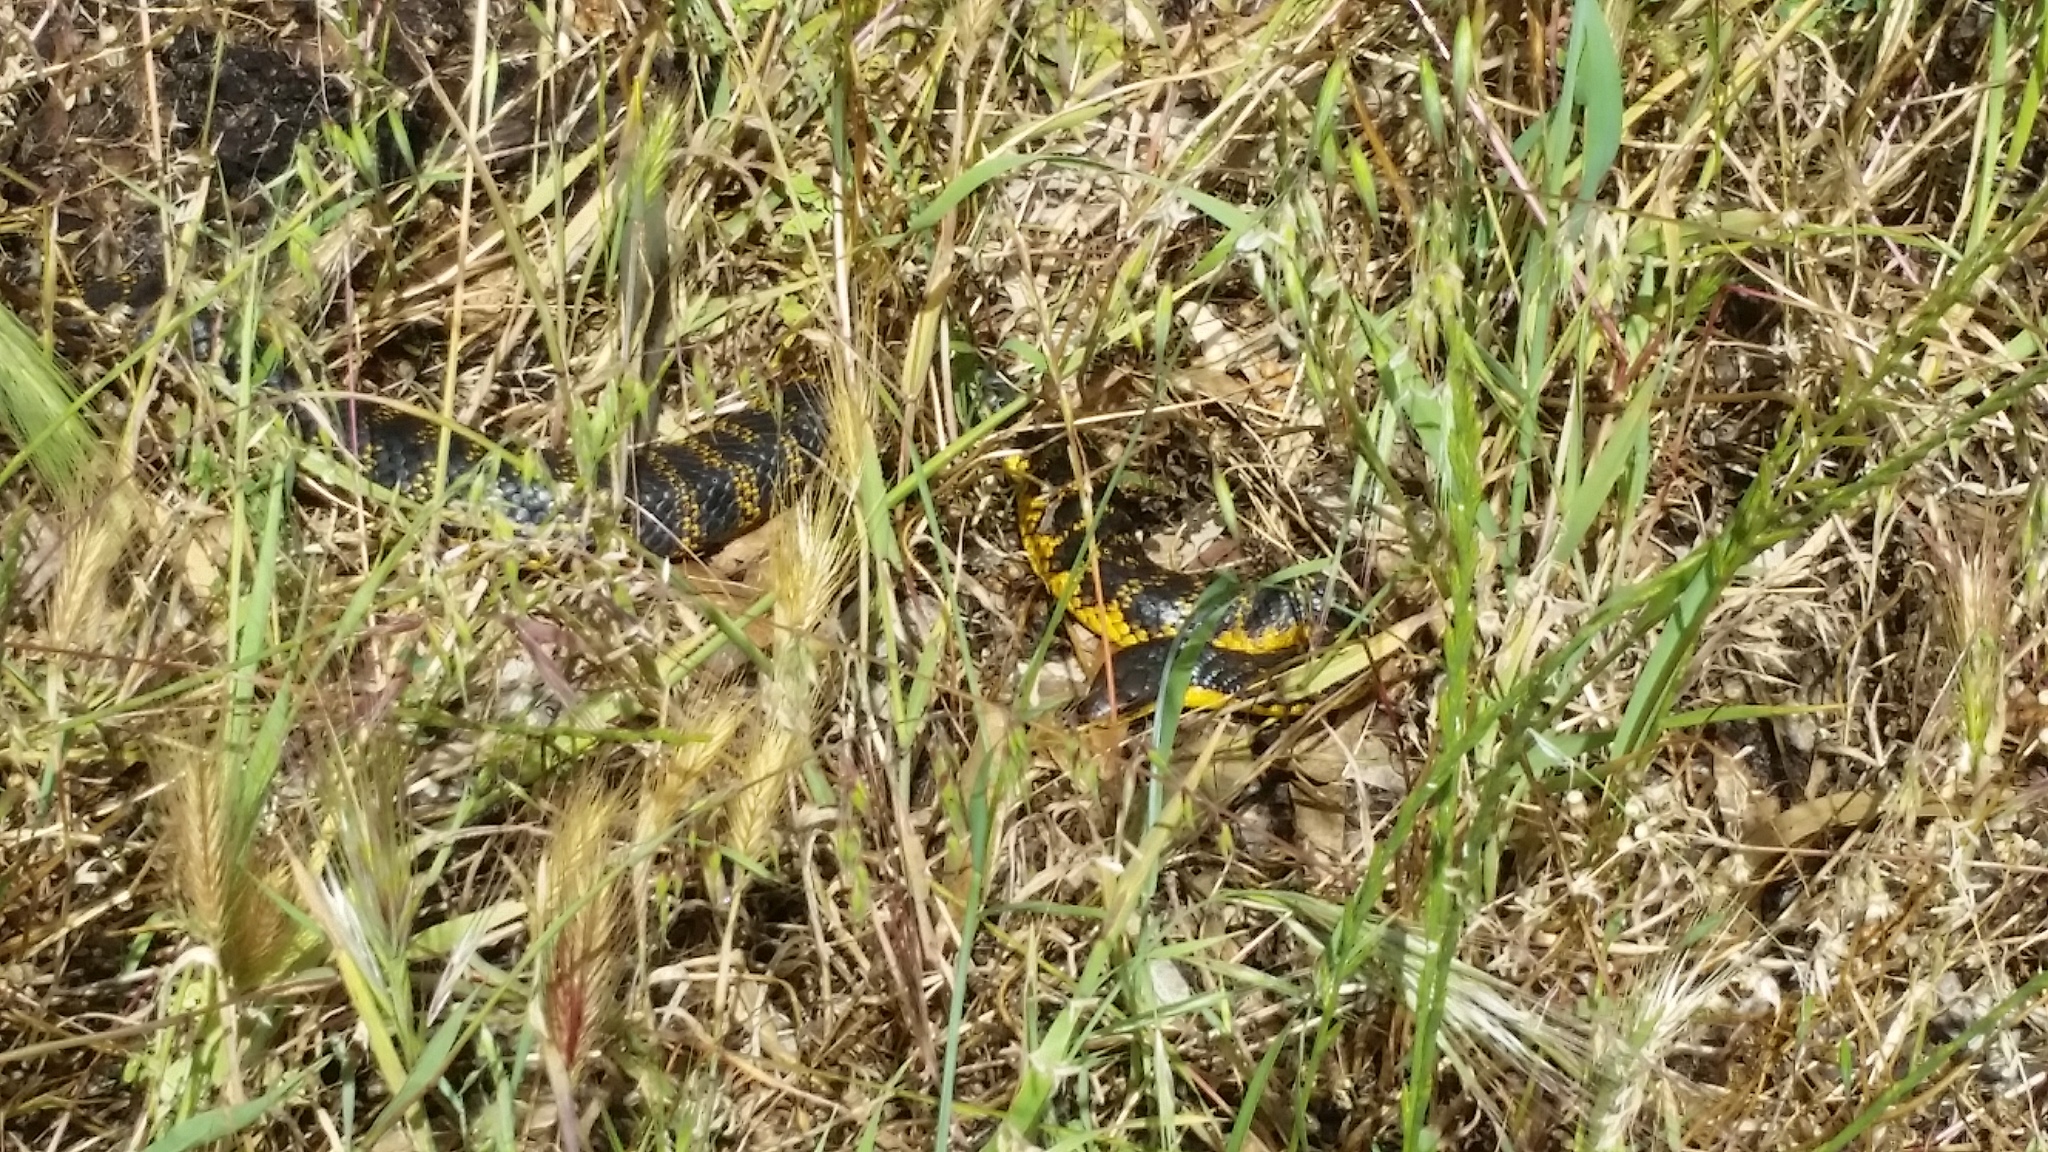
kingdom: Animalia
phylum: Chordata
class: Squamata
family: Elapidae
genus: Notechis
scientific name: Notechis scutatus
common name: Mainland tiger snake
